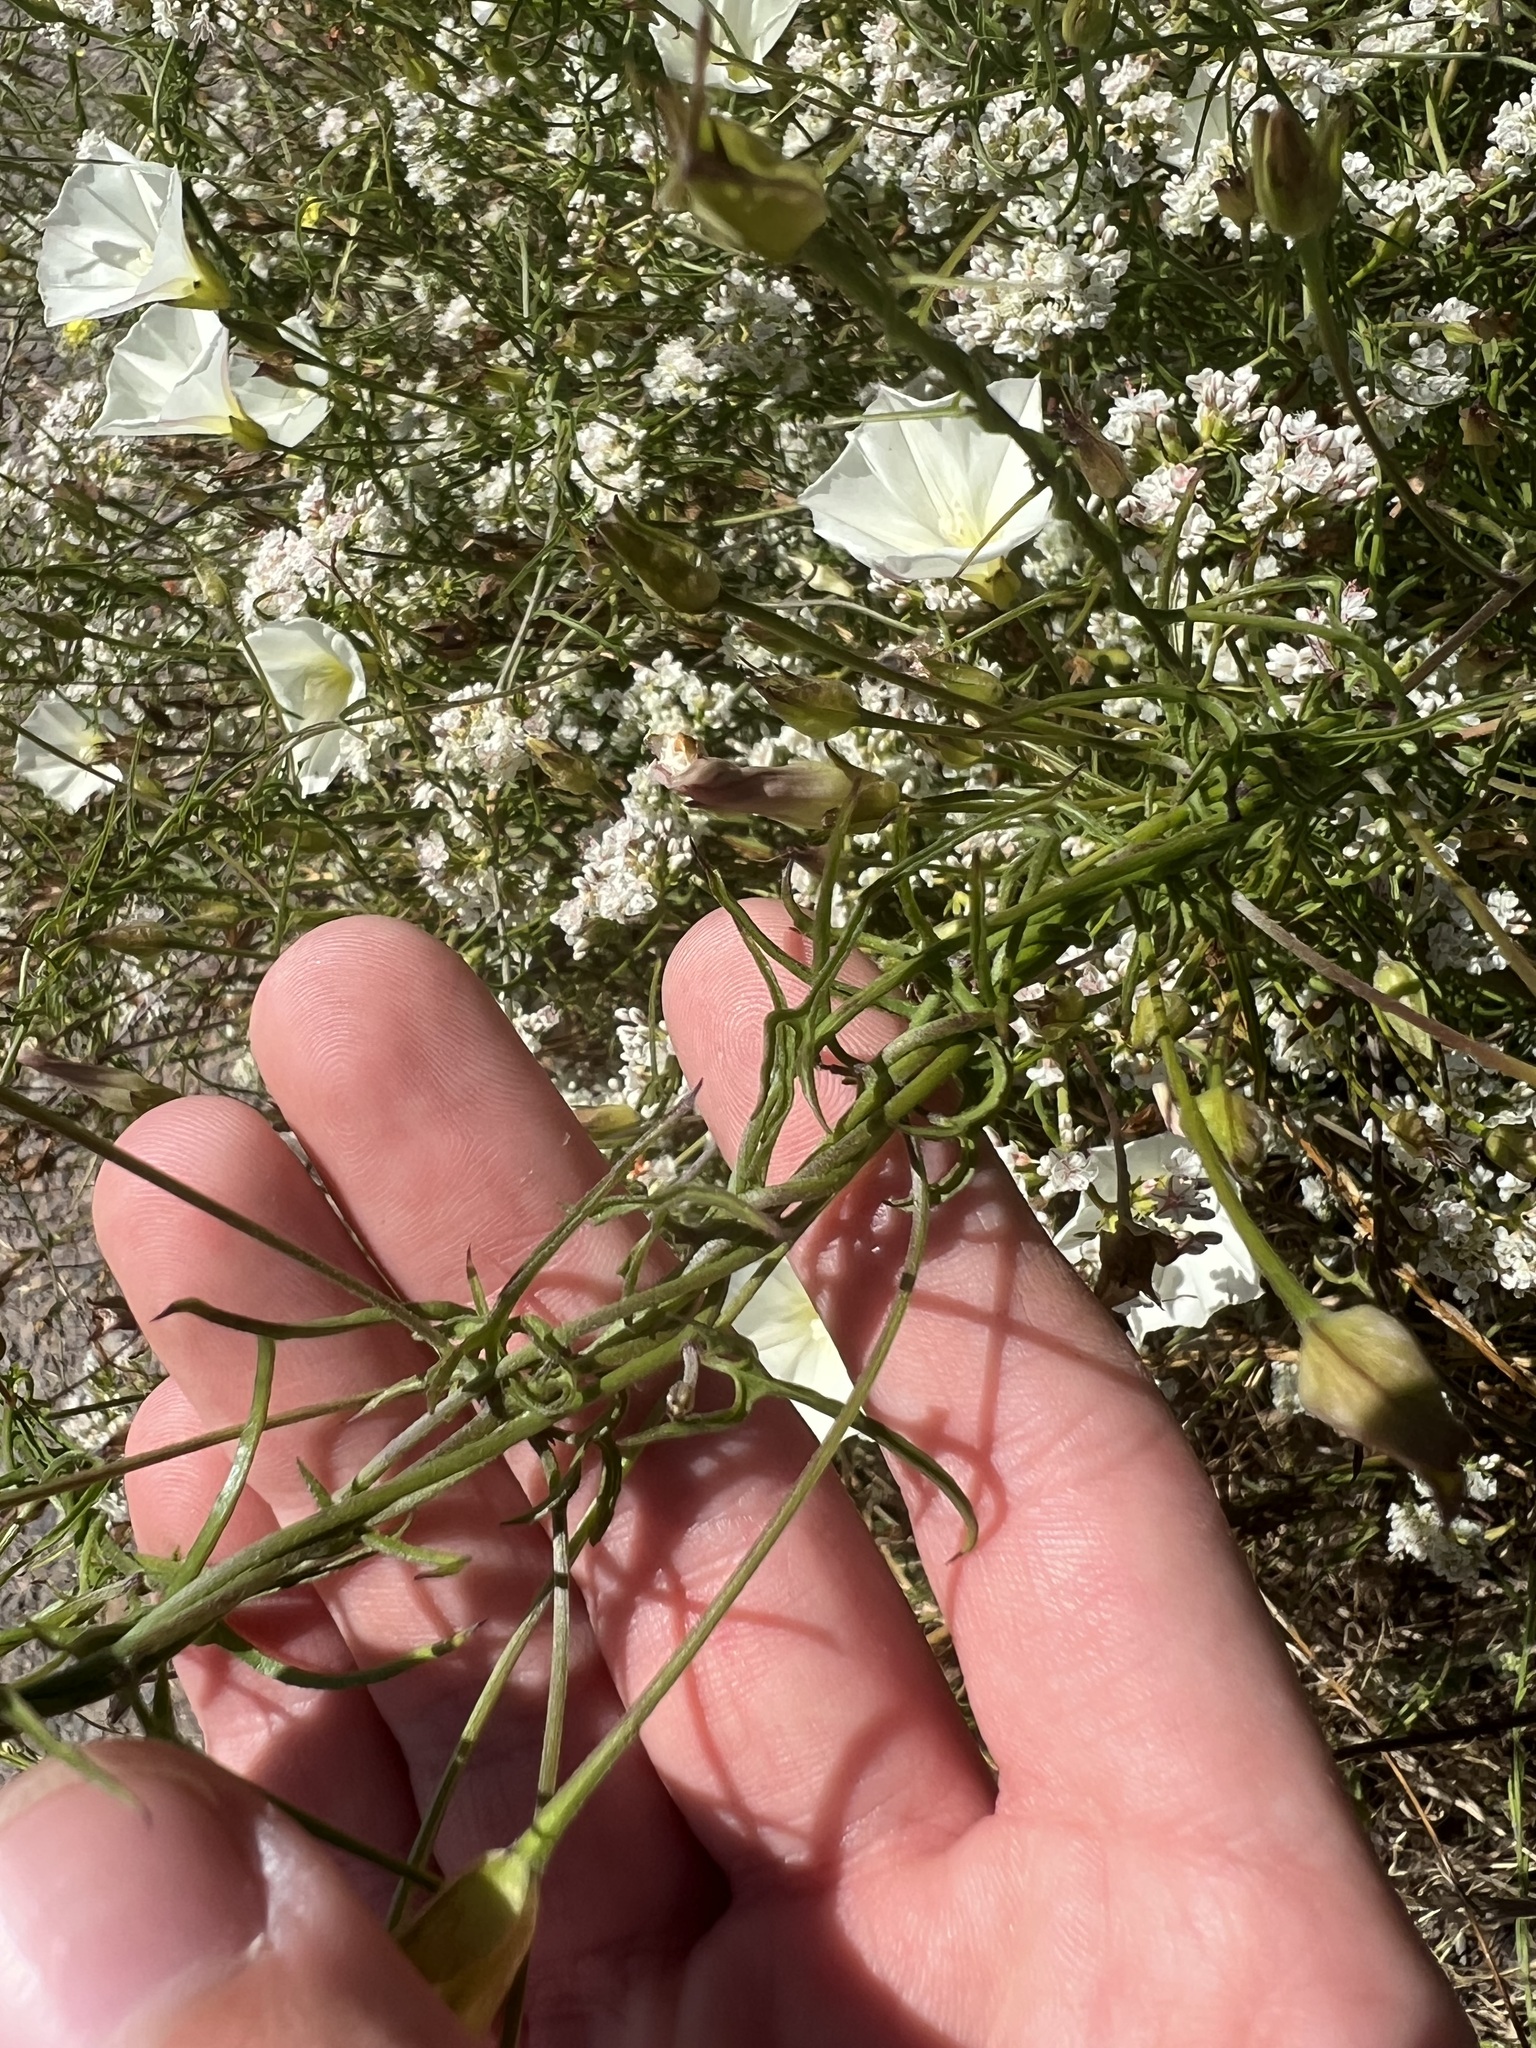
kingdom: Plantae
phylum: Tracheophyta
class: Magnoliopsida
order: Solanales
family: Convolvulaceae
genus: Calystegia
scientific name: Calystegia macrostegia
